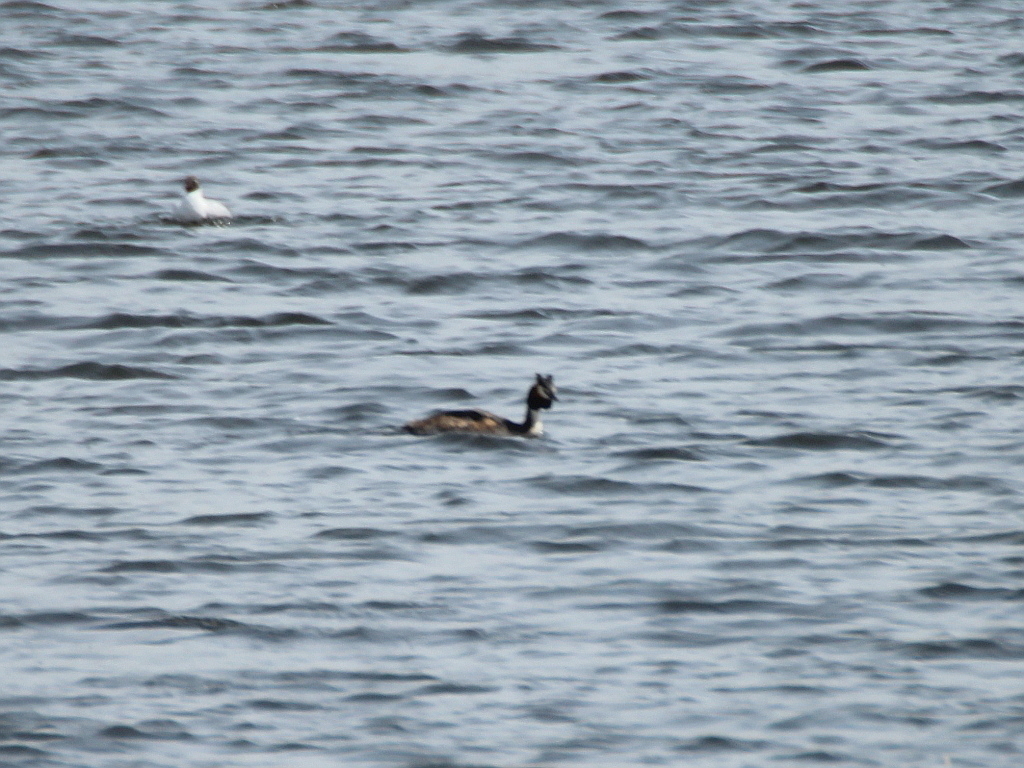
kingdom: Animalia
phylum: Chordata
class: Aves
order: Podicipediformes
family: Podicipedidae
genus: Podiceps
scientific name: Podiceps cristatus
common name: Great crested grebe
